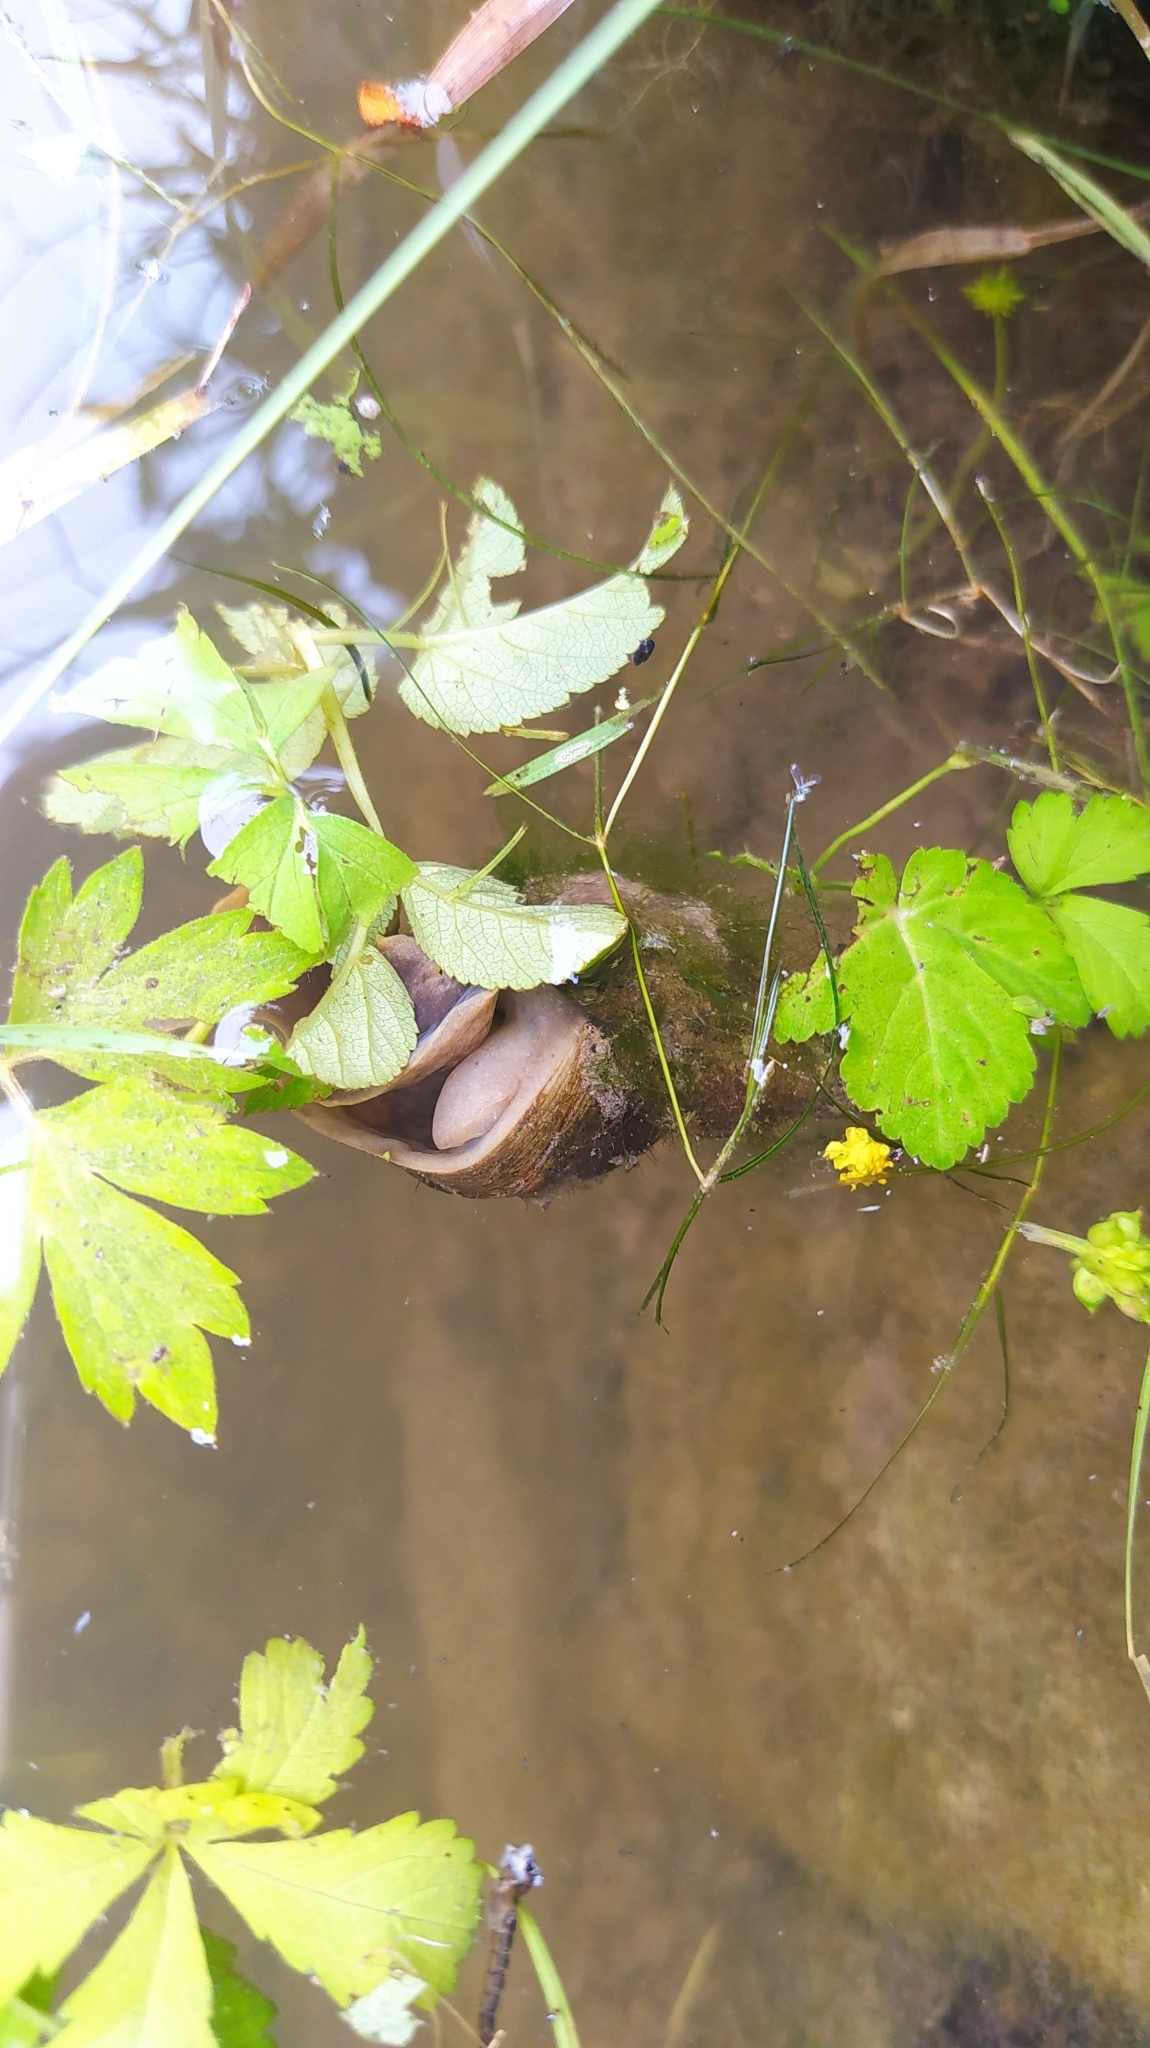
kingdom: Animalia
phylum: Mollusca
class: Gastropoda
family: Lymnaeidae
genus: Lymnaea
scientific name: Lymnaea stagnalis
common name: Great pond snail
